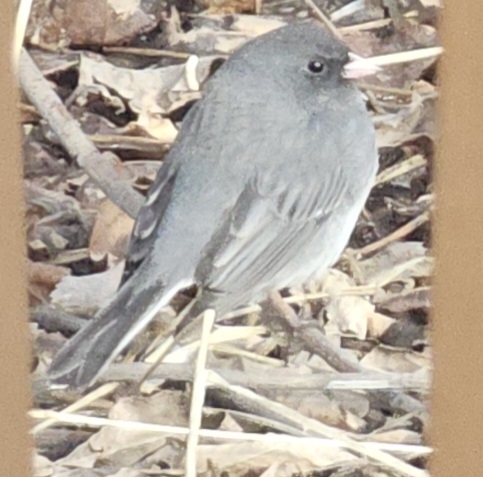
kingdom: Animalia
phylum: Chordata
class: Aves
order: Passeriformes
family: Passerellidae
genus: Junco
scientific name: Junco hyemalis
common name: Dark-eyed junco
